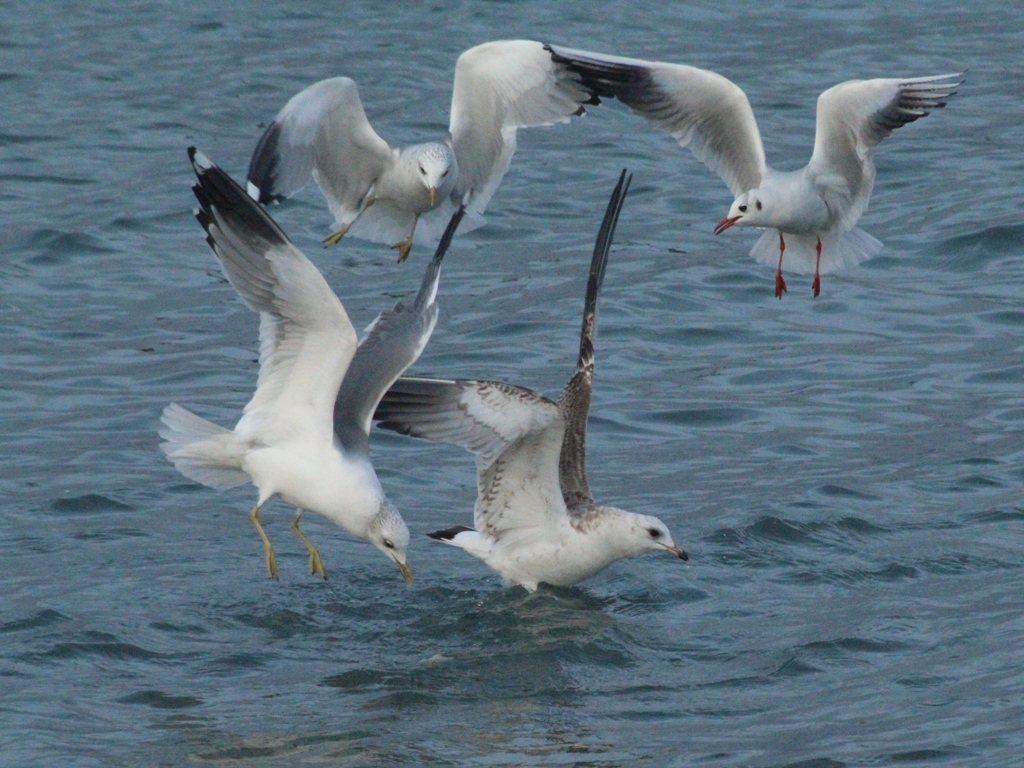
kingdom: Animalia
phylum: Chordata
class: Aves
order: Charadriiformes
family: Laridae
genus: Larus
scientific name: Larus canus
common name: Mew gull
